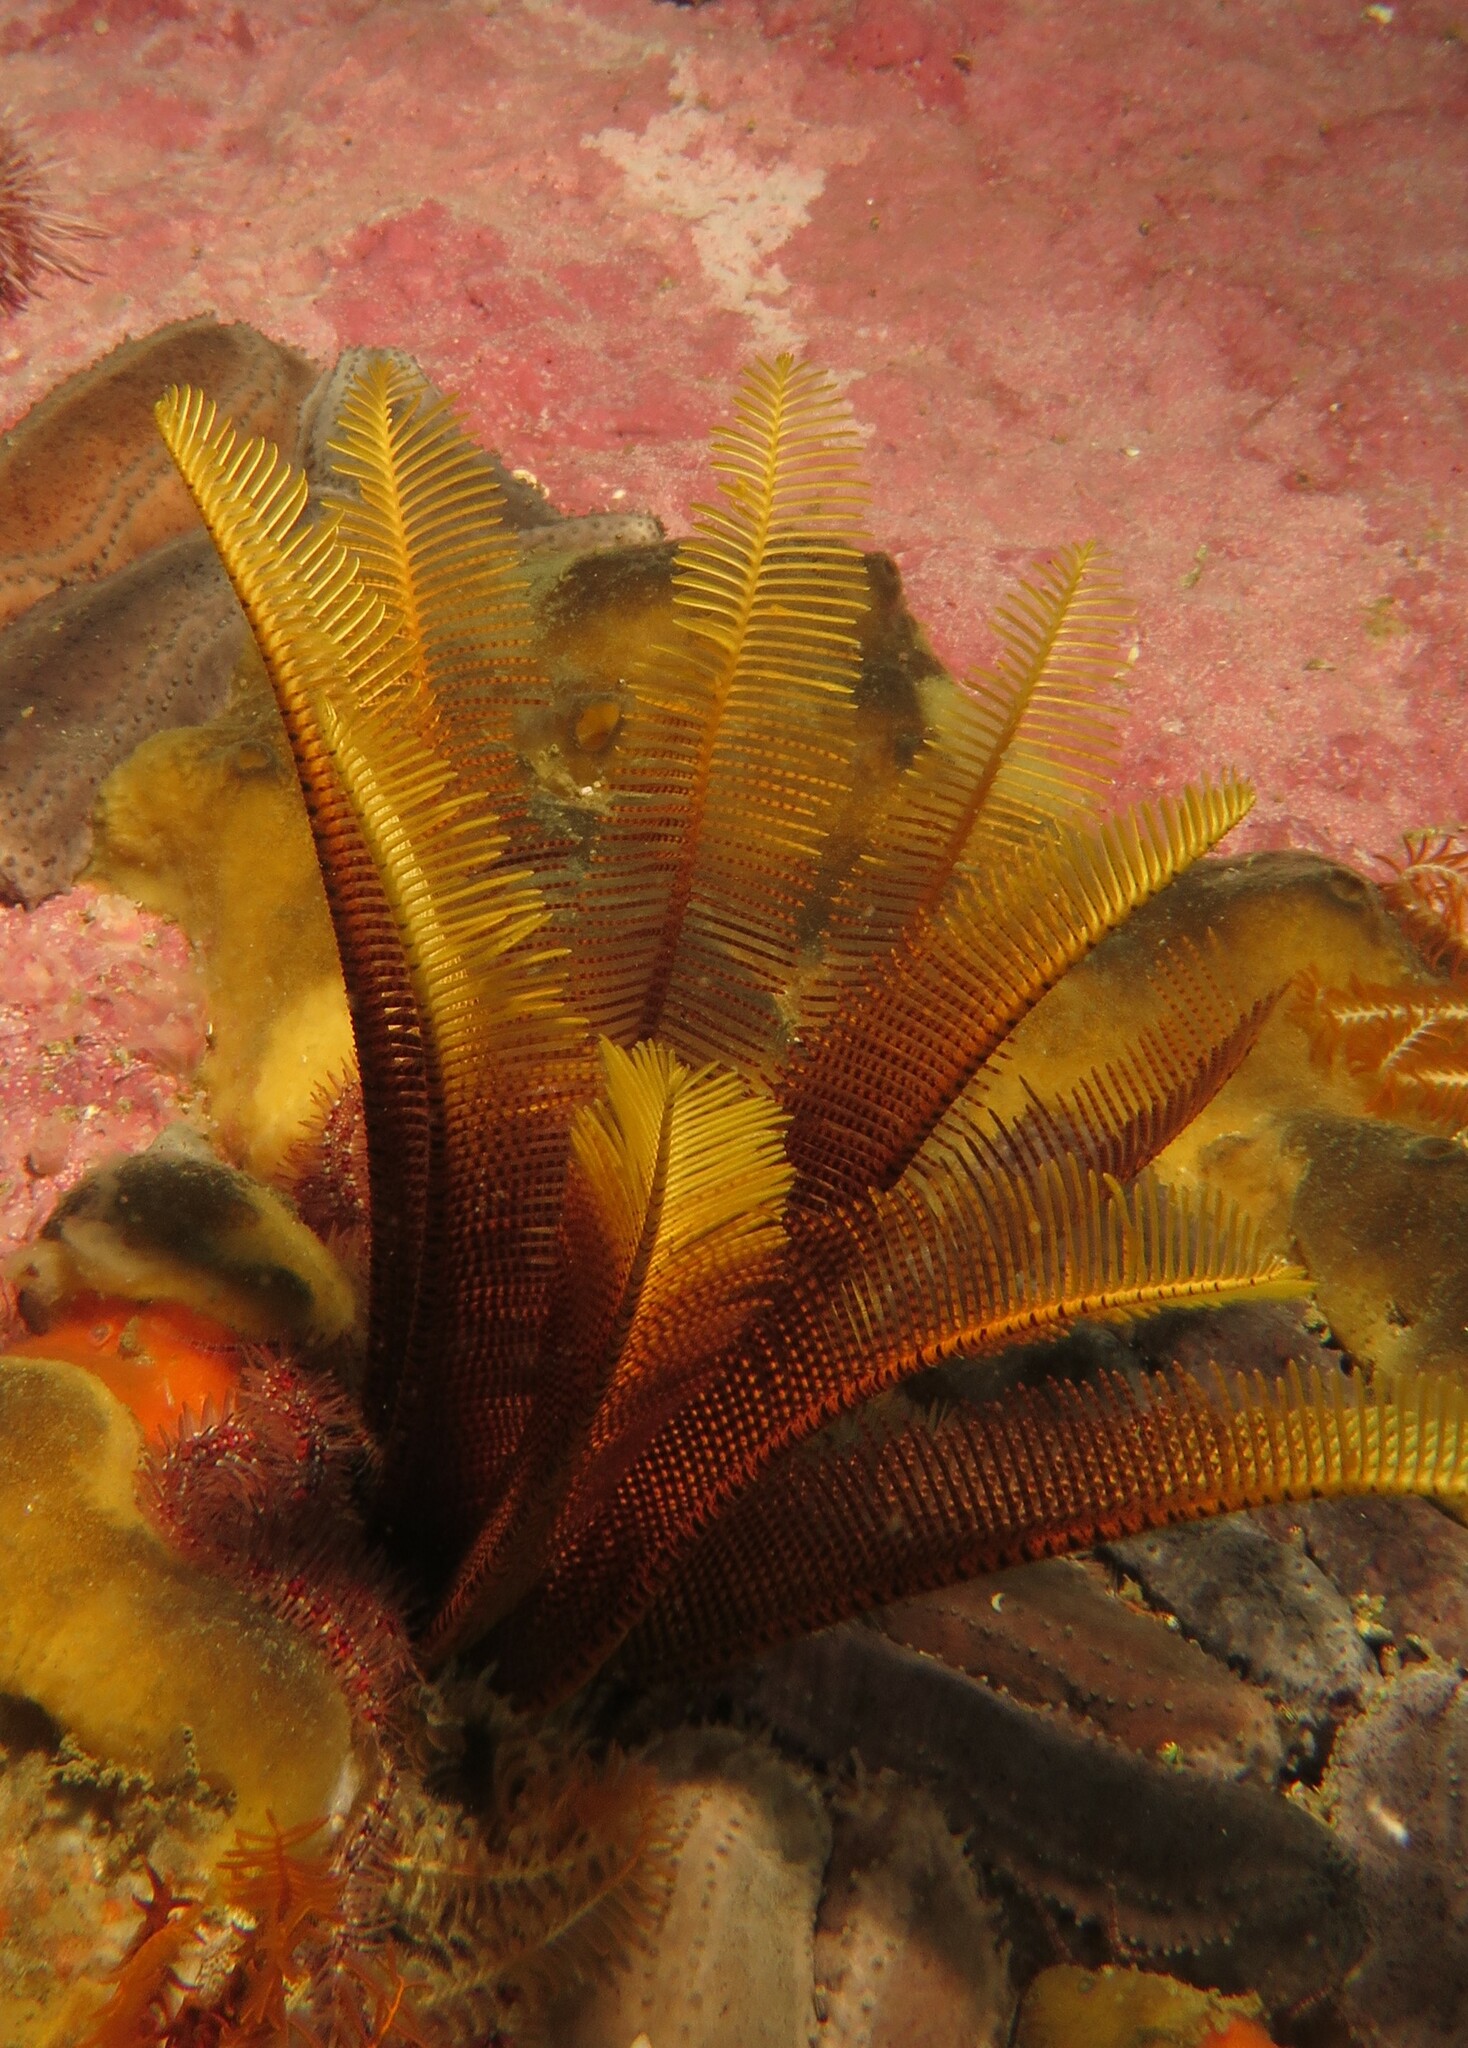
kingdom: Animalia
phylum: Echinodermata
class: Crinoidea
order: Comatulida
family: Tropiometridae
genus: Tropiometra
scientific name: Tropiometra carinata
